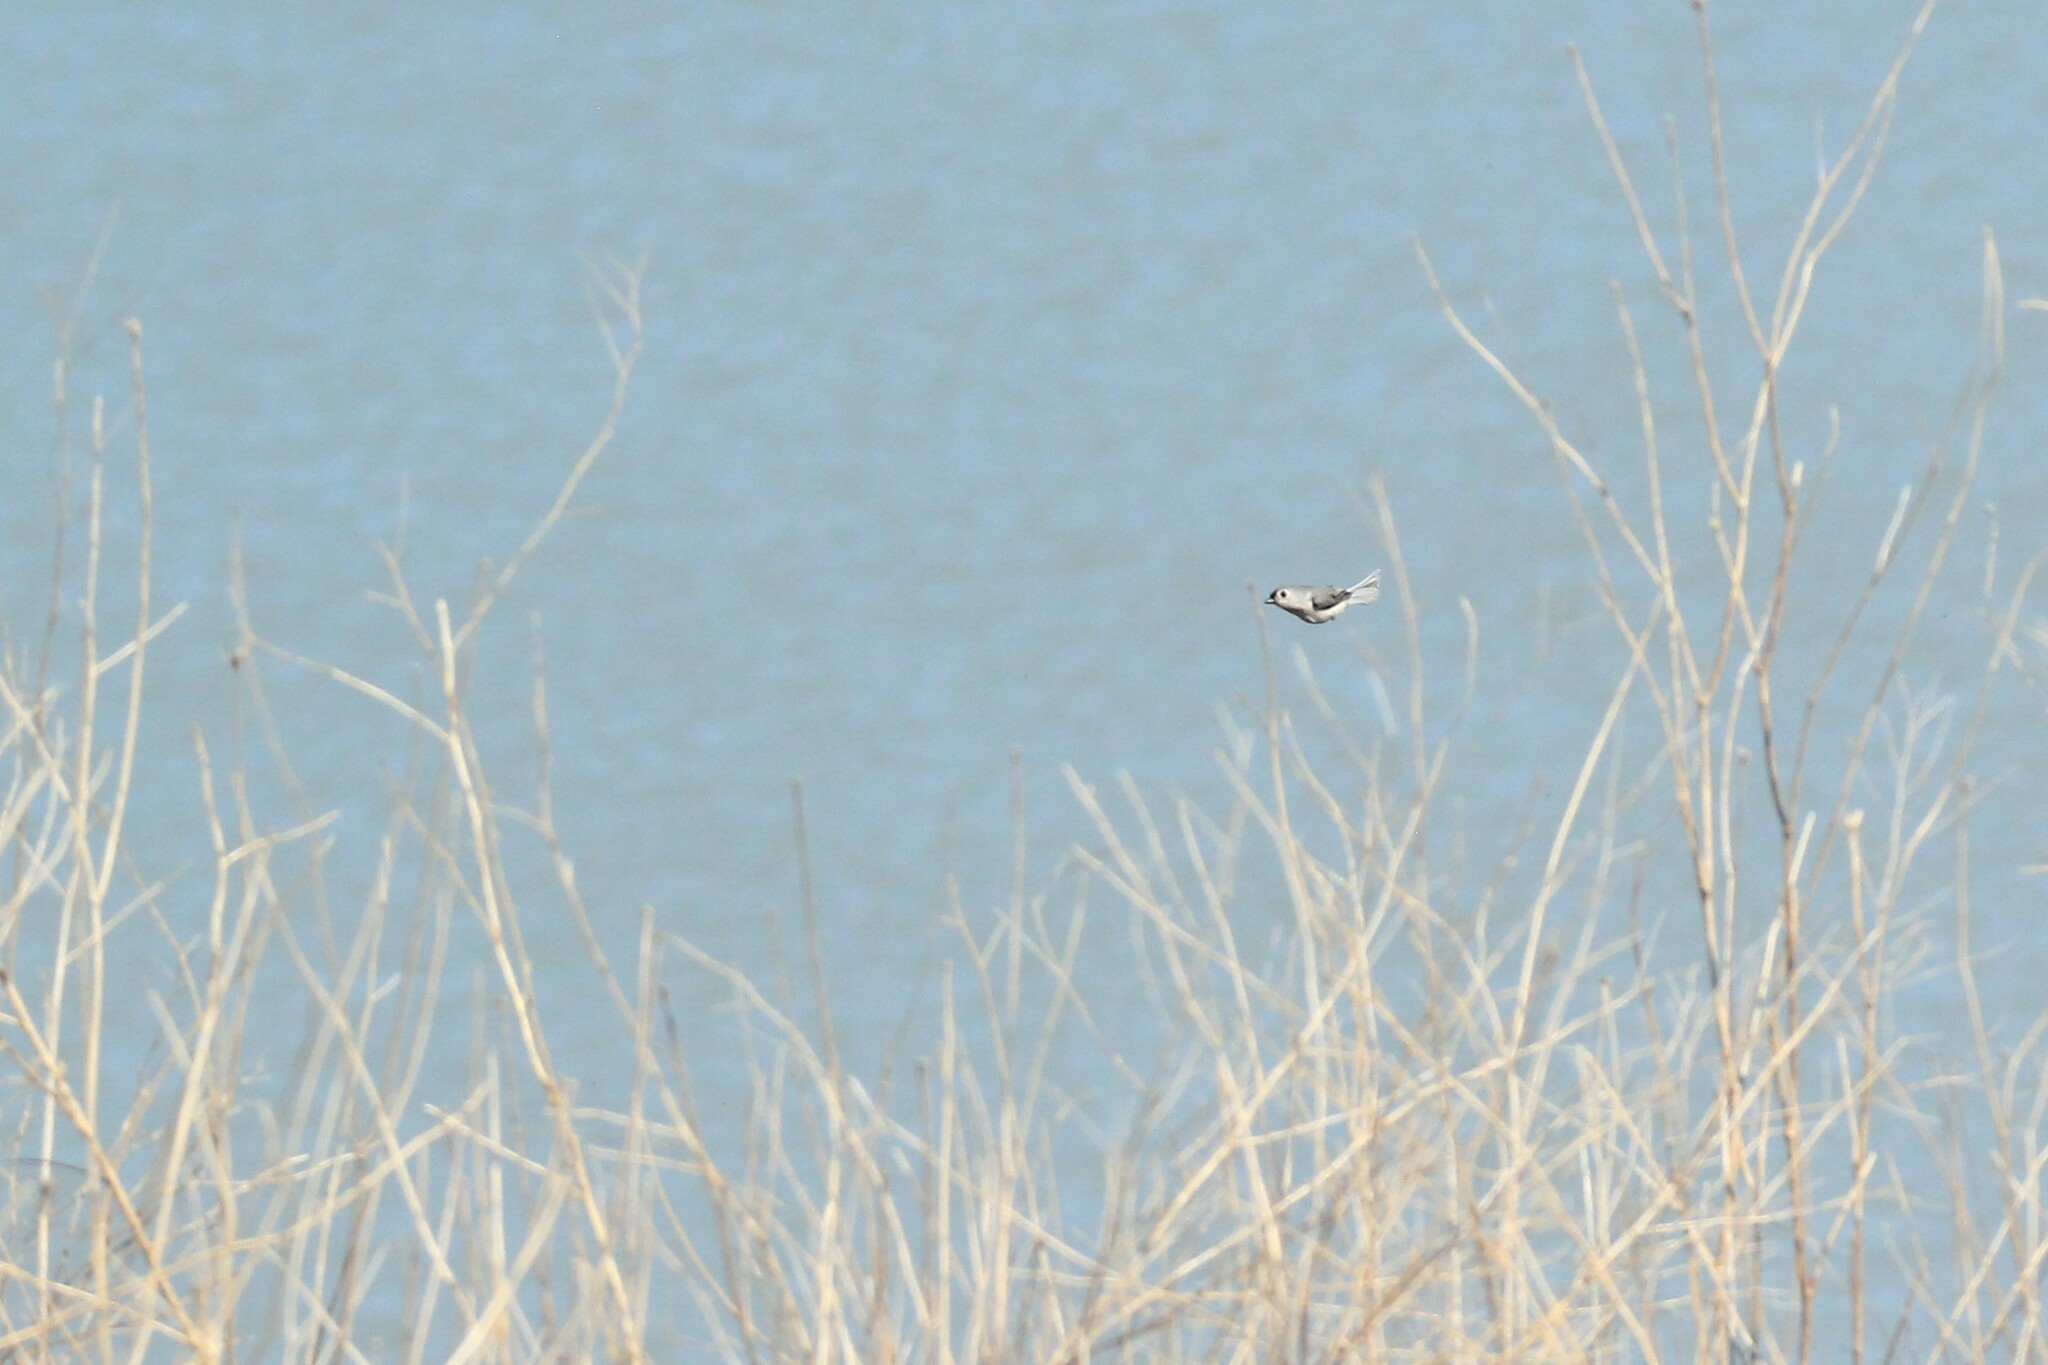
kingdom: Animalia
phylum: Chordata
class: Aves
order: Passeriformes
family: Paridae
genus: Baeolophus
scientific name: Baeolophus bicolor
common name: Tufted titmouse
